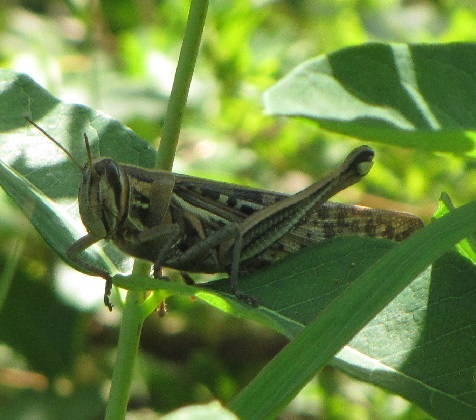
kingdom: Animalia
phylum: Arthropoda
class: Insecta
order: Orthoptera
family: Acrididae
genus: Schistocerca
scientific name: Schistocerca americana
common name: American bird locust
